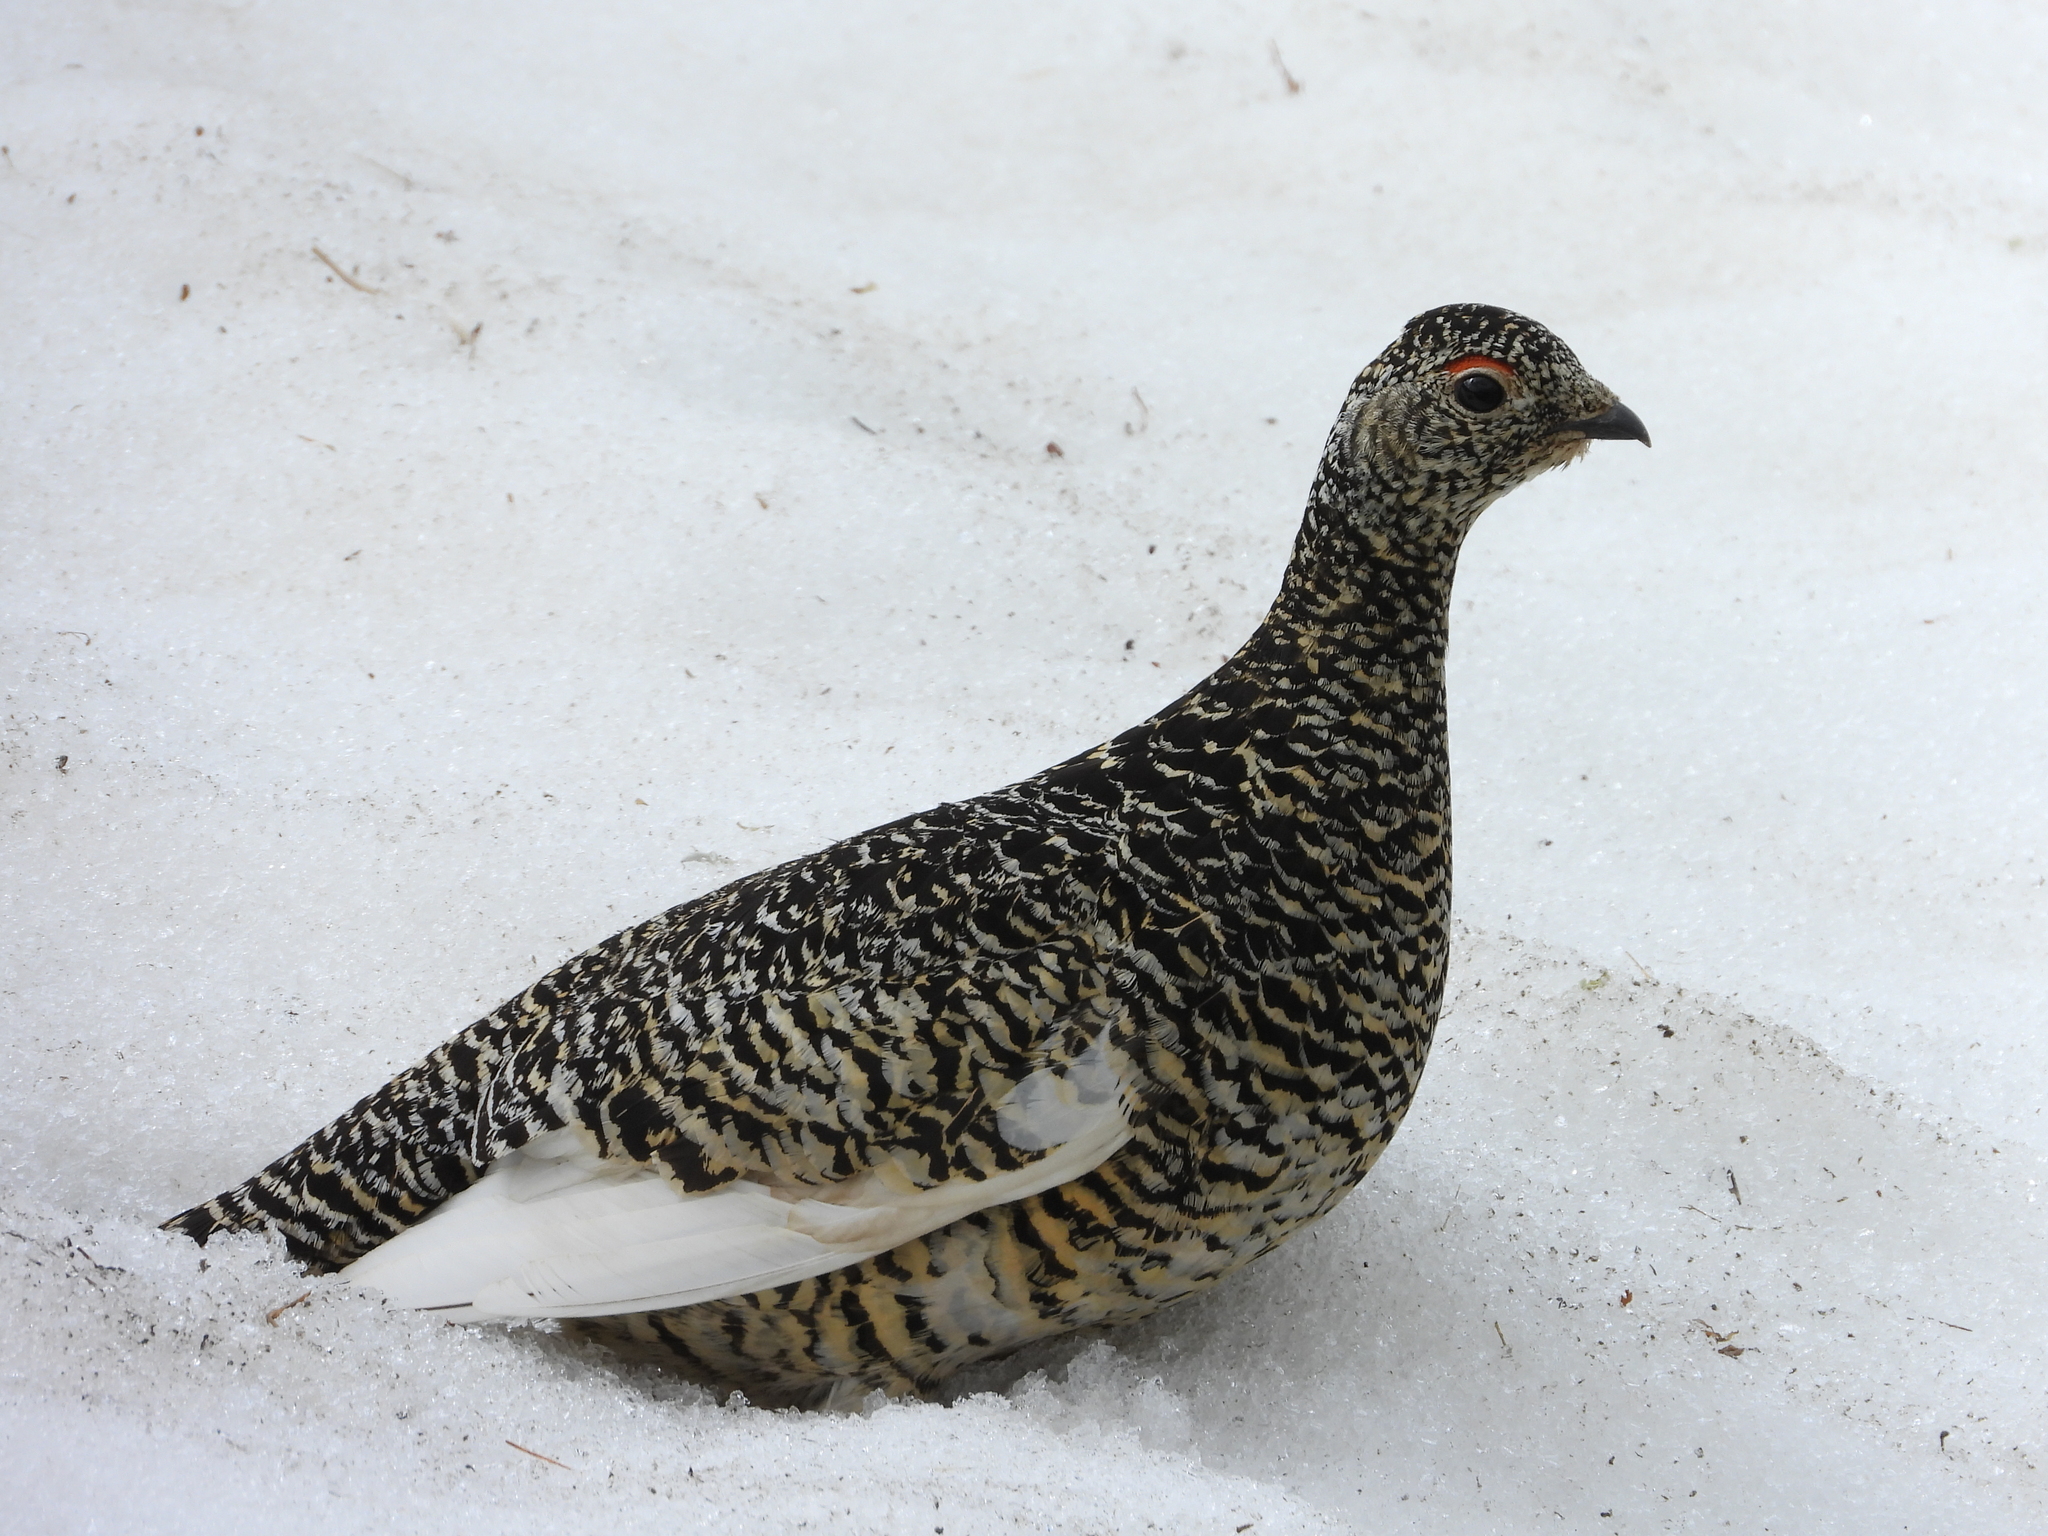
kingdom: Animalia
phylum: Chordata
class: Aves
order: Galliformes
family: Phasianidae
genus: Lagopus
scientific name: Lagopus muta
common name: Rock ptarmigan
